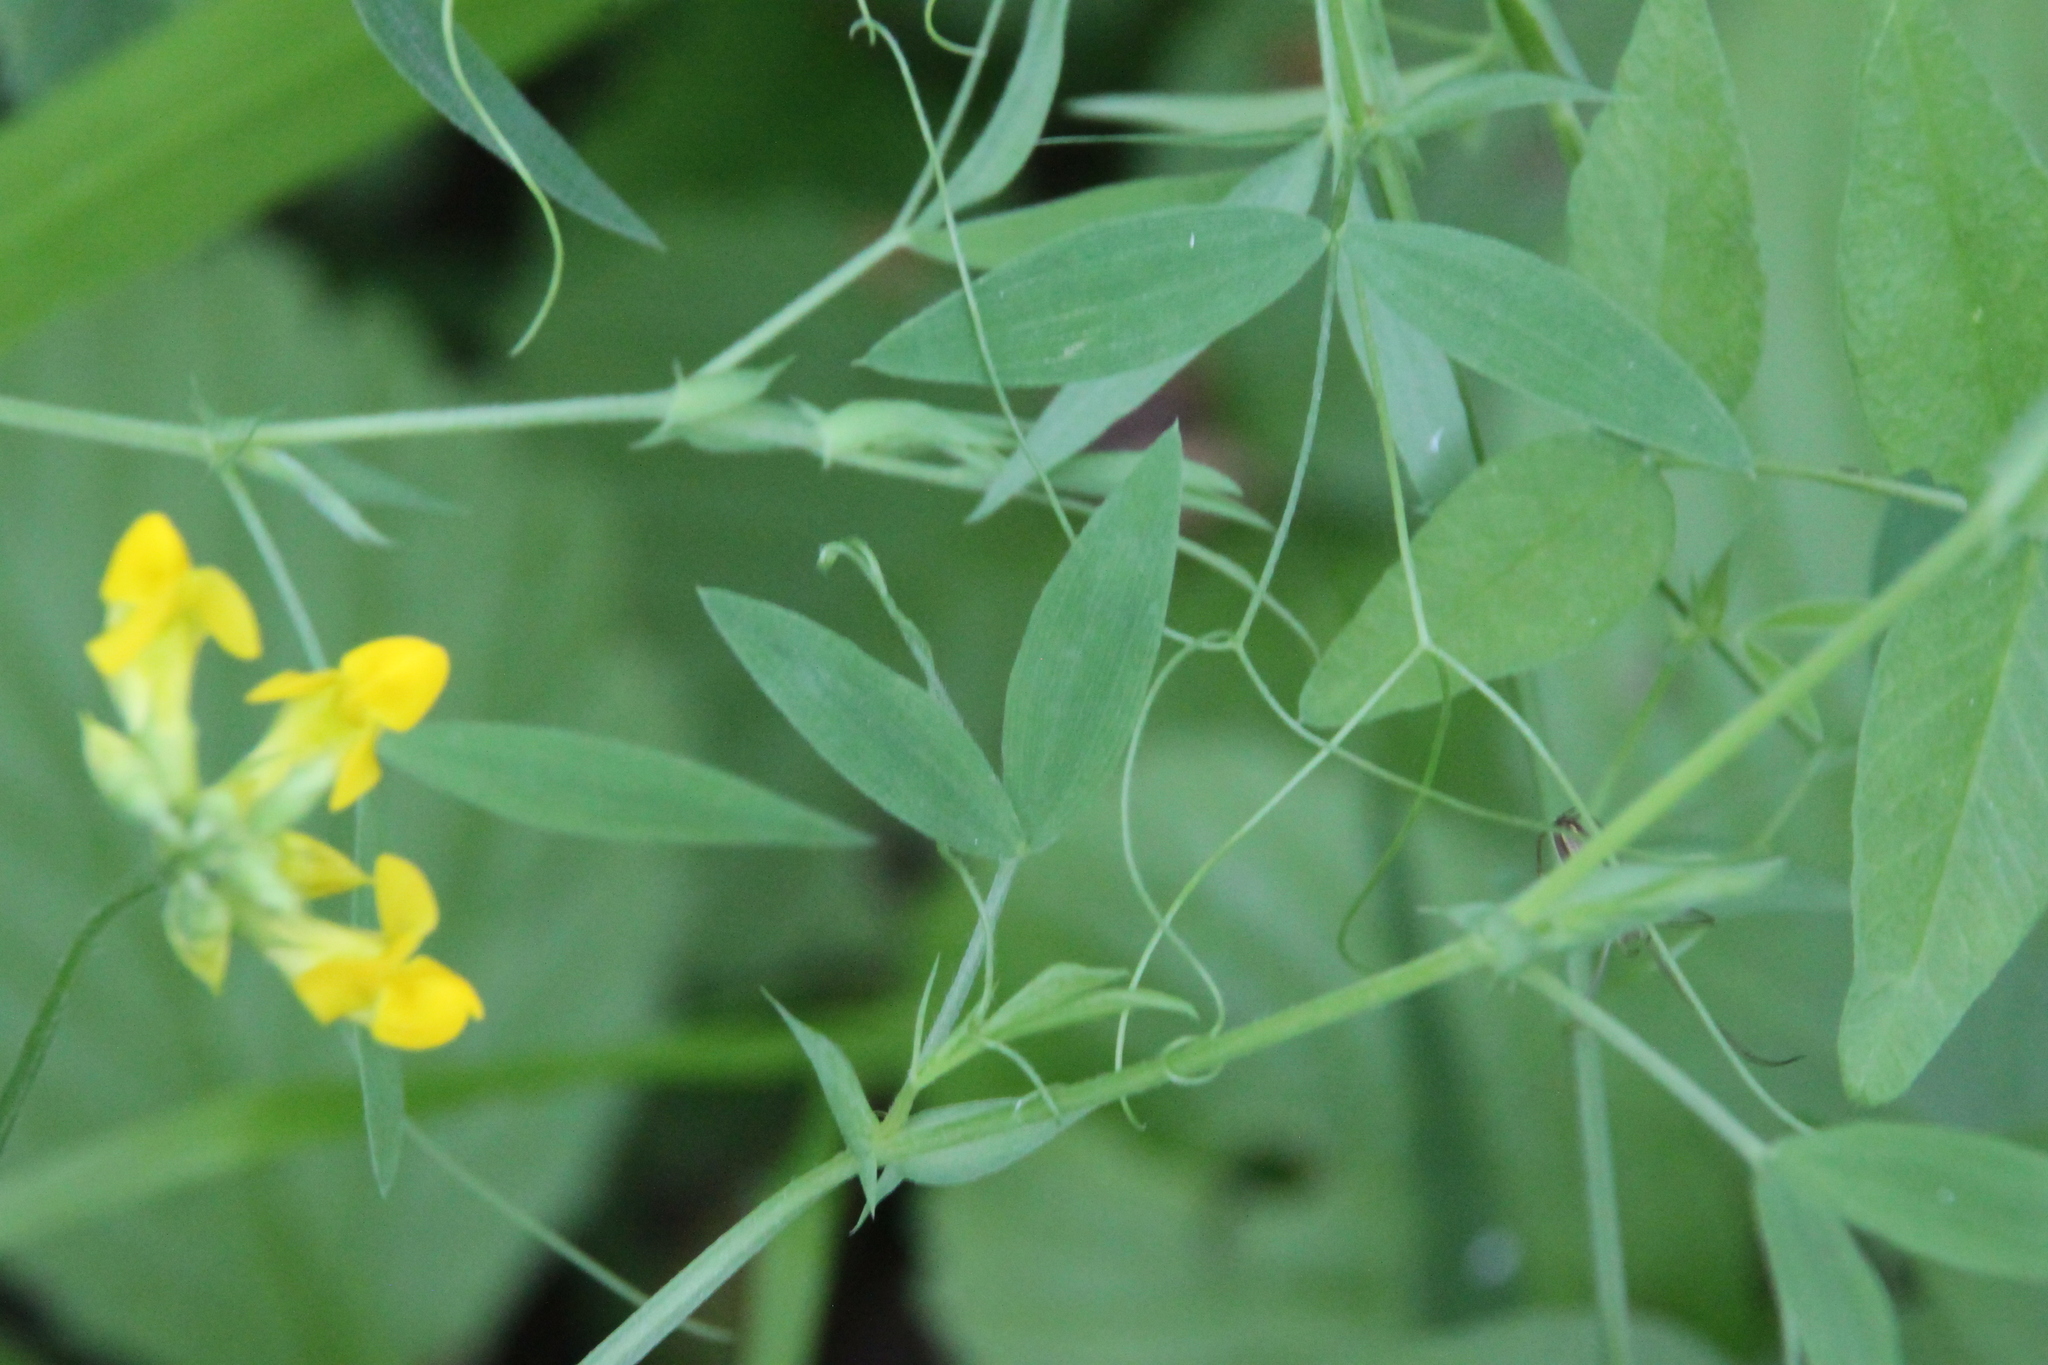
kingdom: Plantae
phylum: Tracheophyta
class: Magnoliopsida
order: Fabales
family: Fabaceae
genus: Lathyrus
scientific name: Lathyrus pratensis
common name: Meadow vetchling
